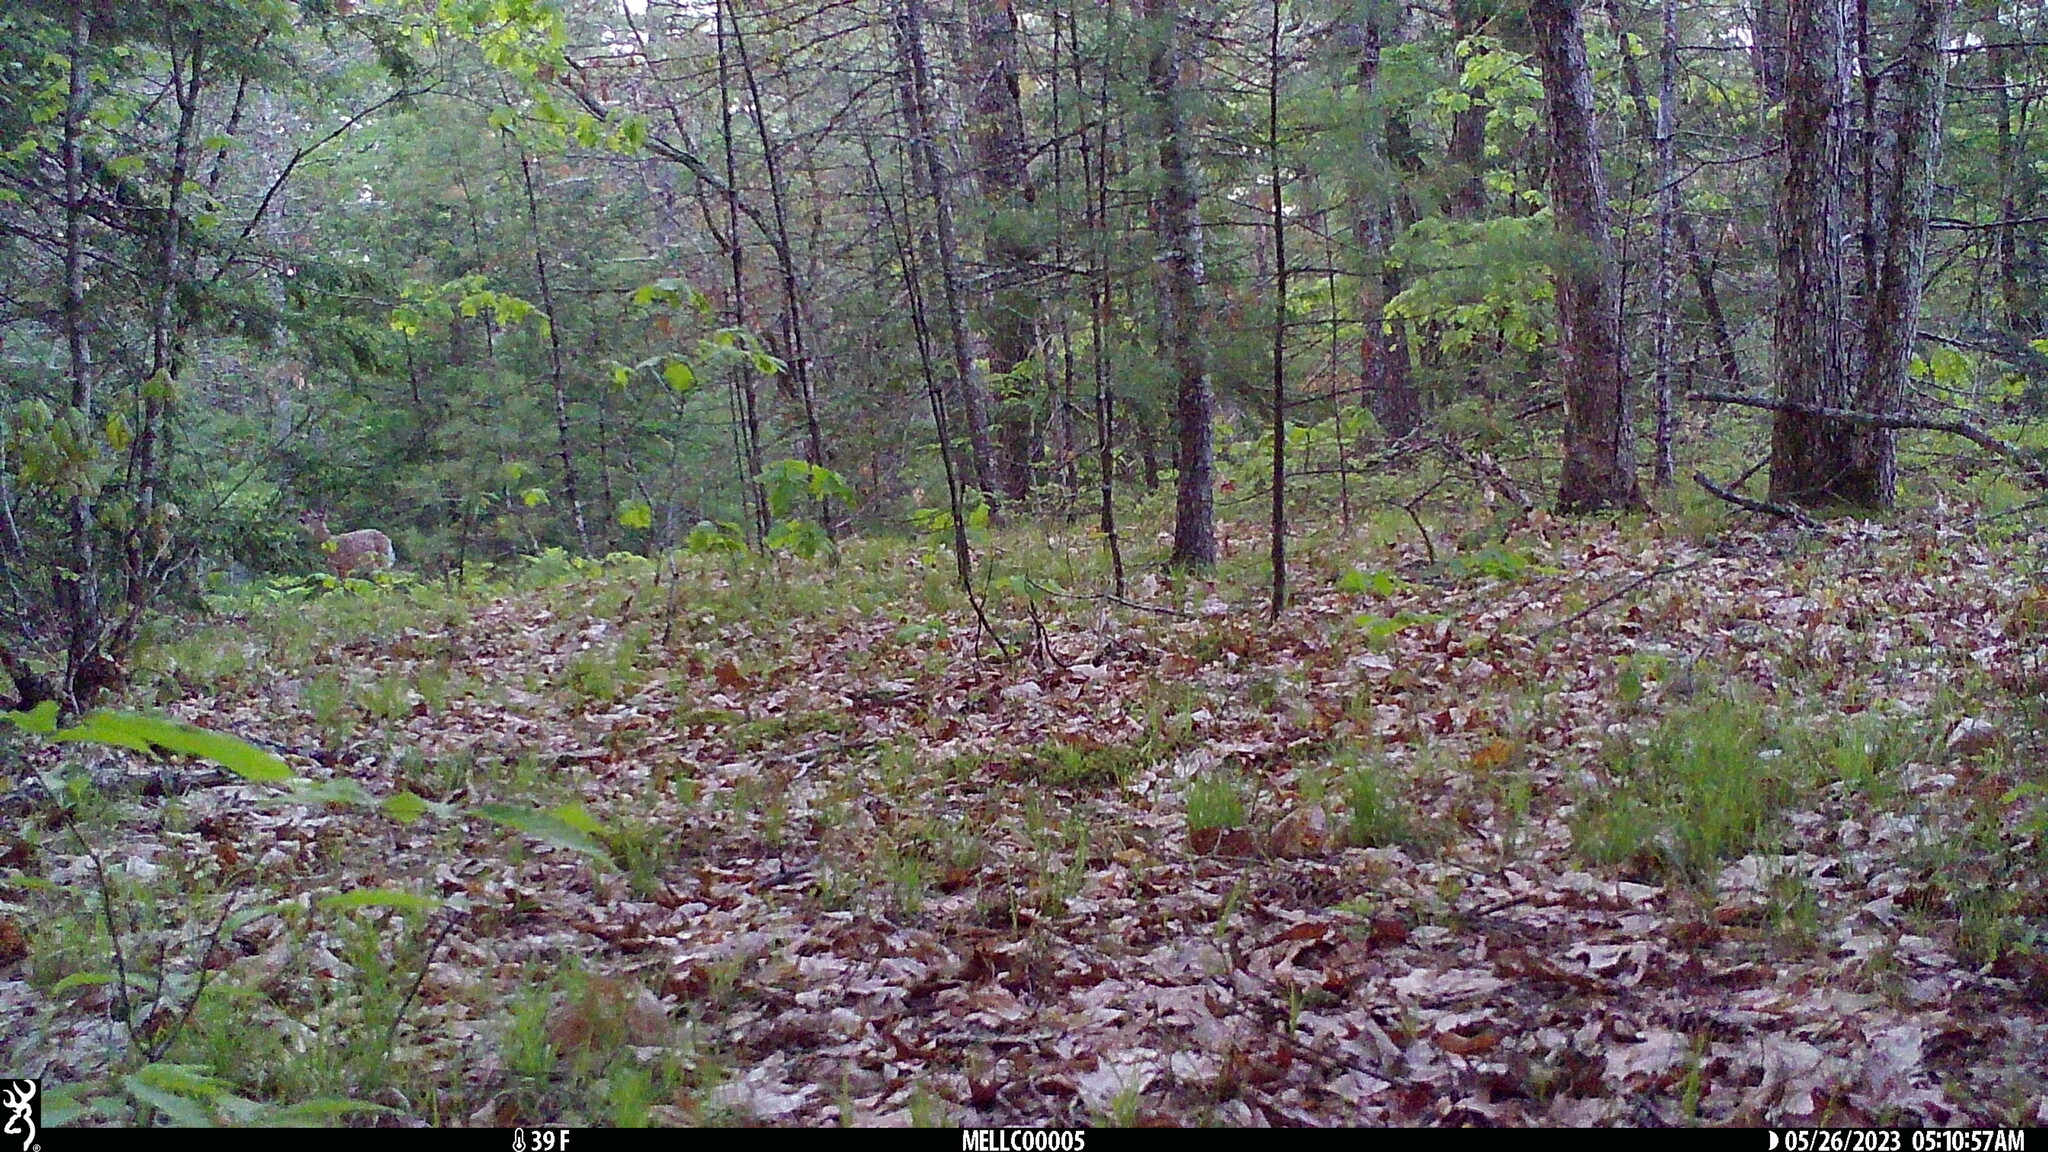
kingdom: Animalia
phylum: Chordata
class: Mammalia
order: Artiodactyla
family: Cervidae
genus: Odocoileus
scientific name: Odocoileus virginianus
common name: White-tailed deer
